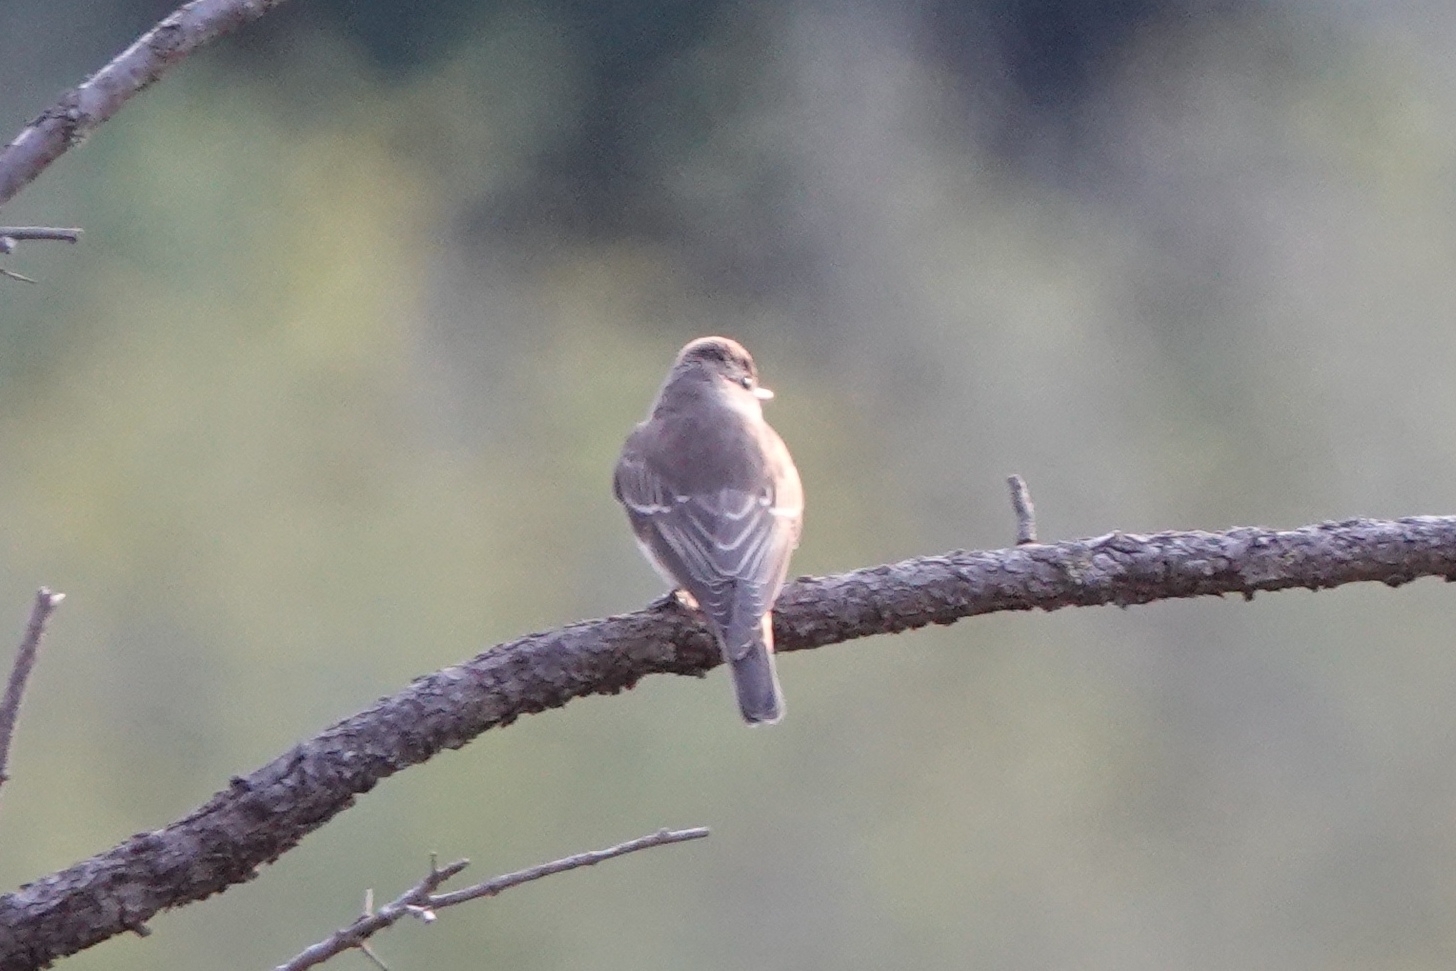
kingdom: Animalia
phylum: Chordata
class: Aves
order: Passeriformes
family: Muscicapidae
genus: Muscicapa
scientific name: Muscicapa striata
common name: Spotted flycatcher
